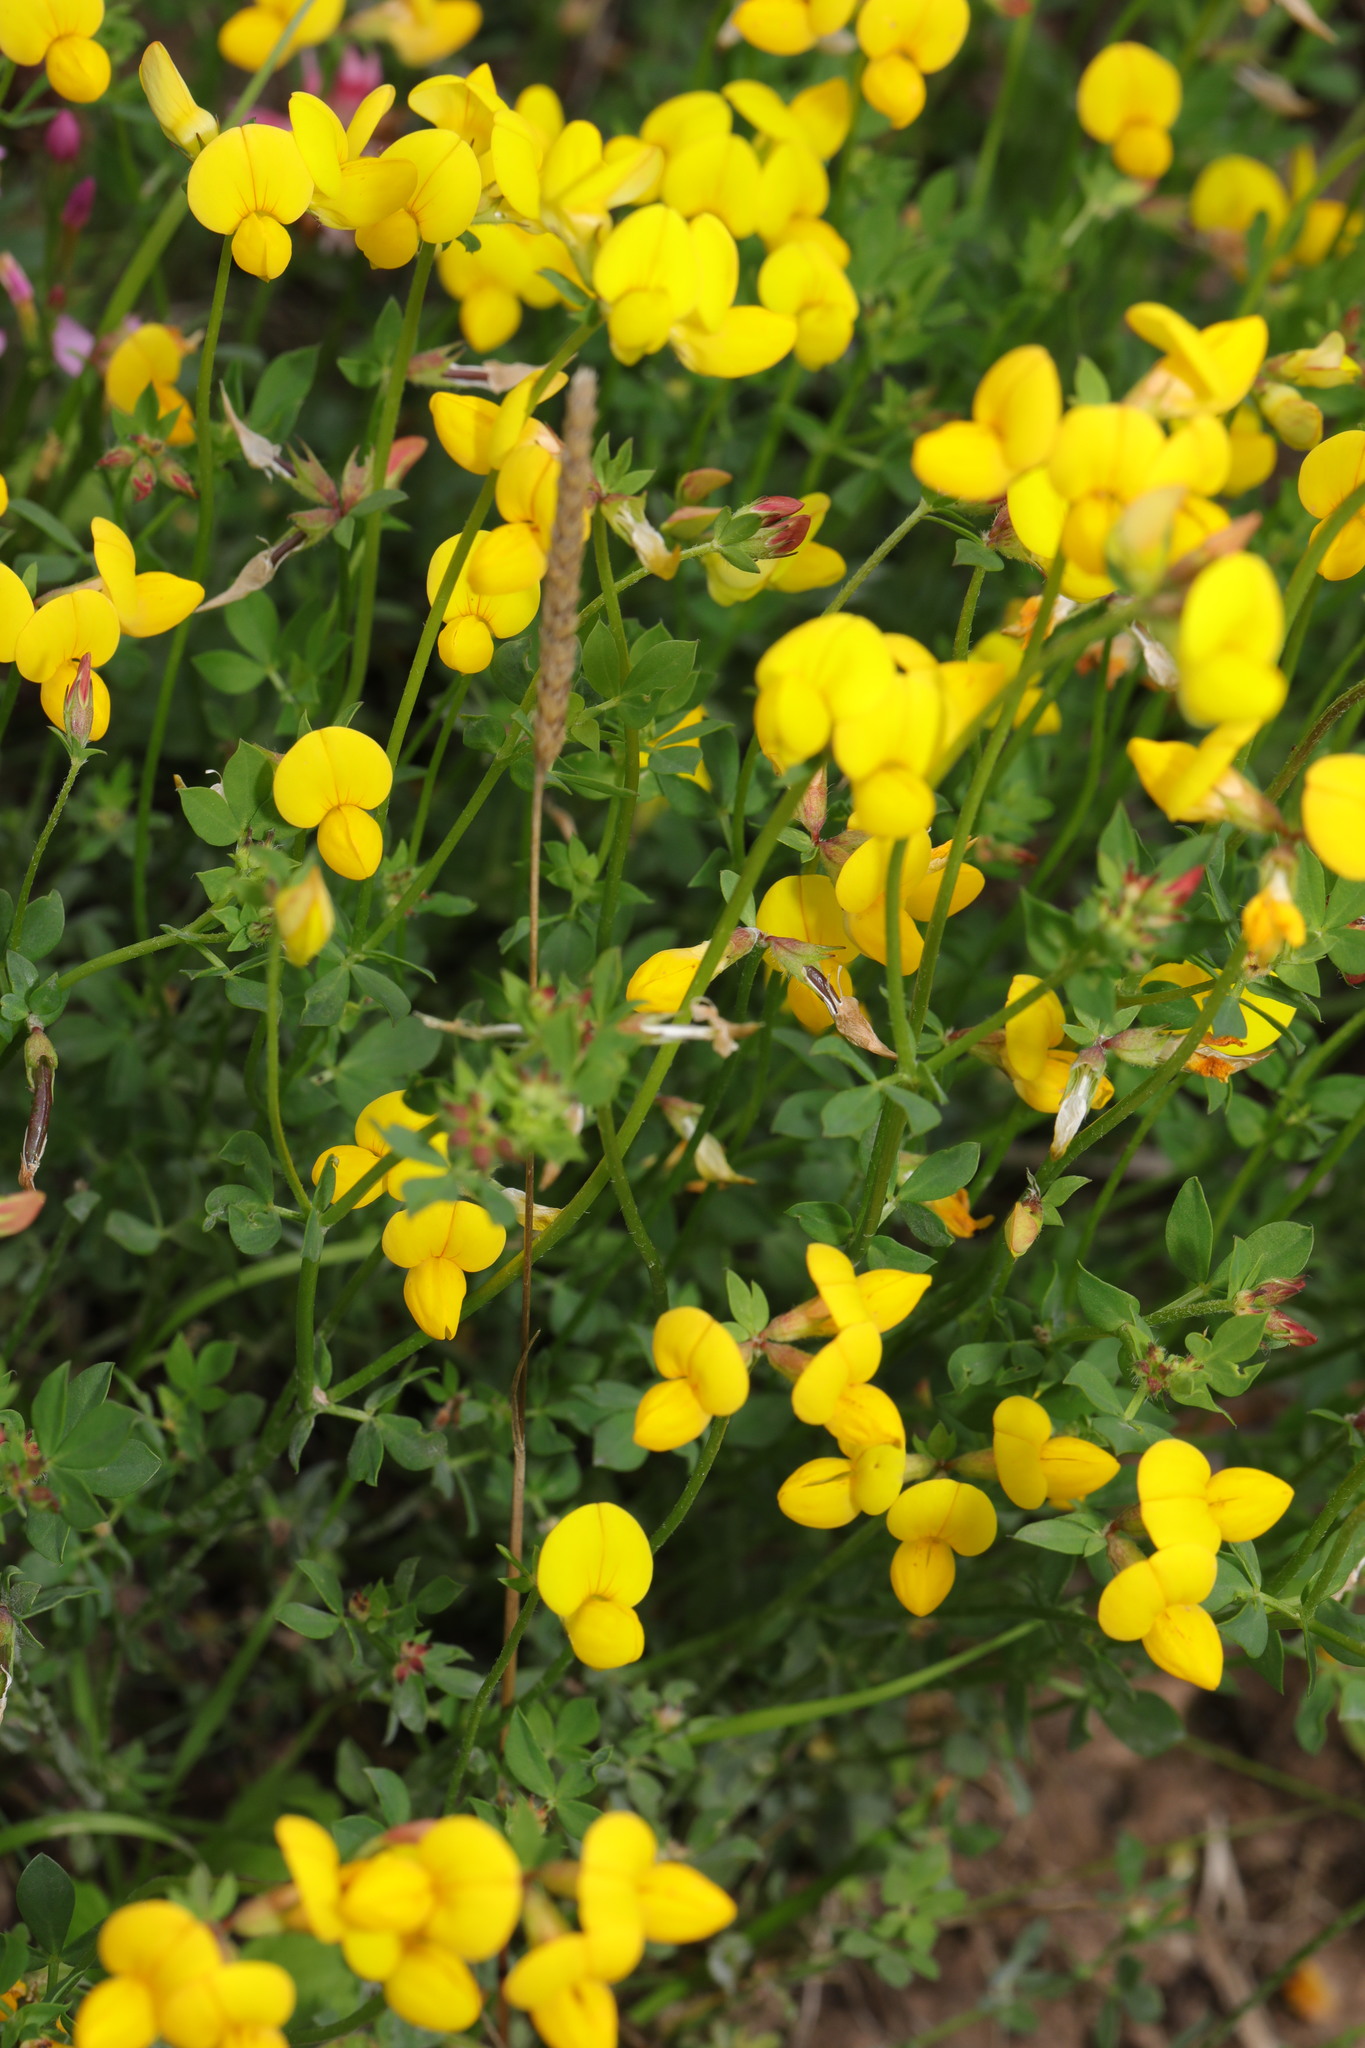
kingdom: Plantae
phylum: Tracheophyta
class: Magnoliopsida
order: Fabales
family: Fabaceae
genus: Lotus
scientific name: Lotus corniculatus
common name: Common bird's-foot-trefoil
